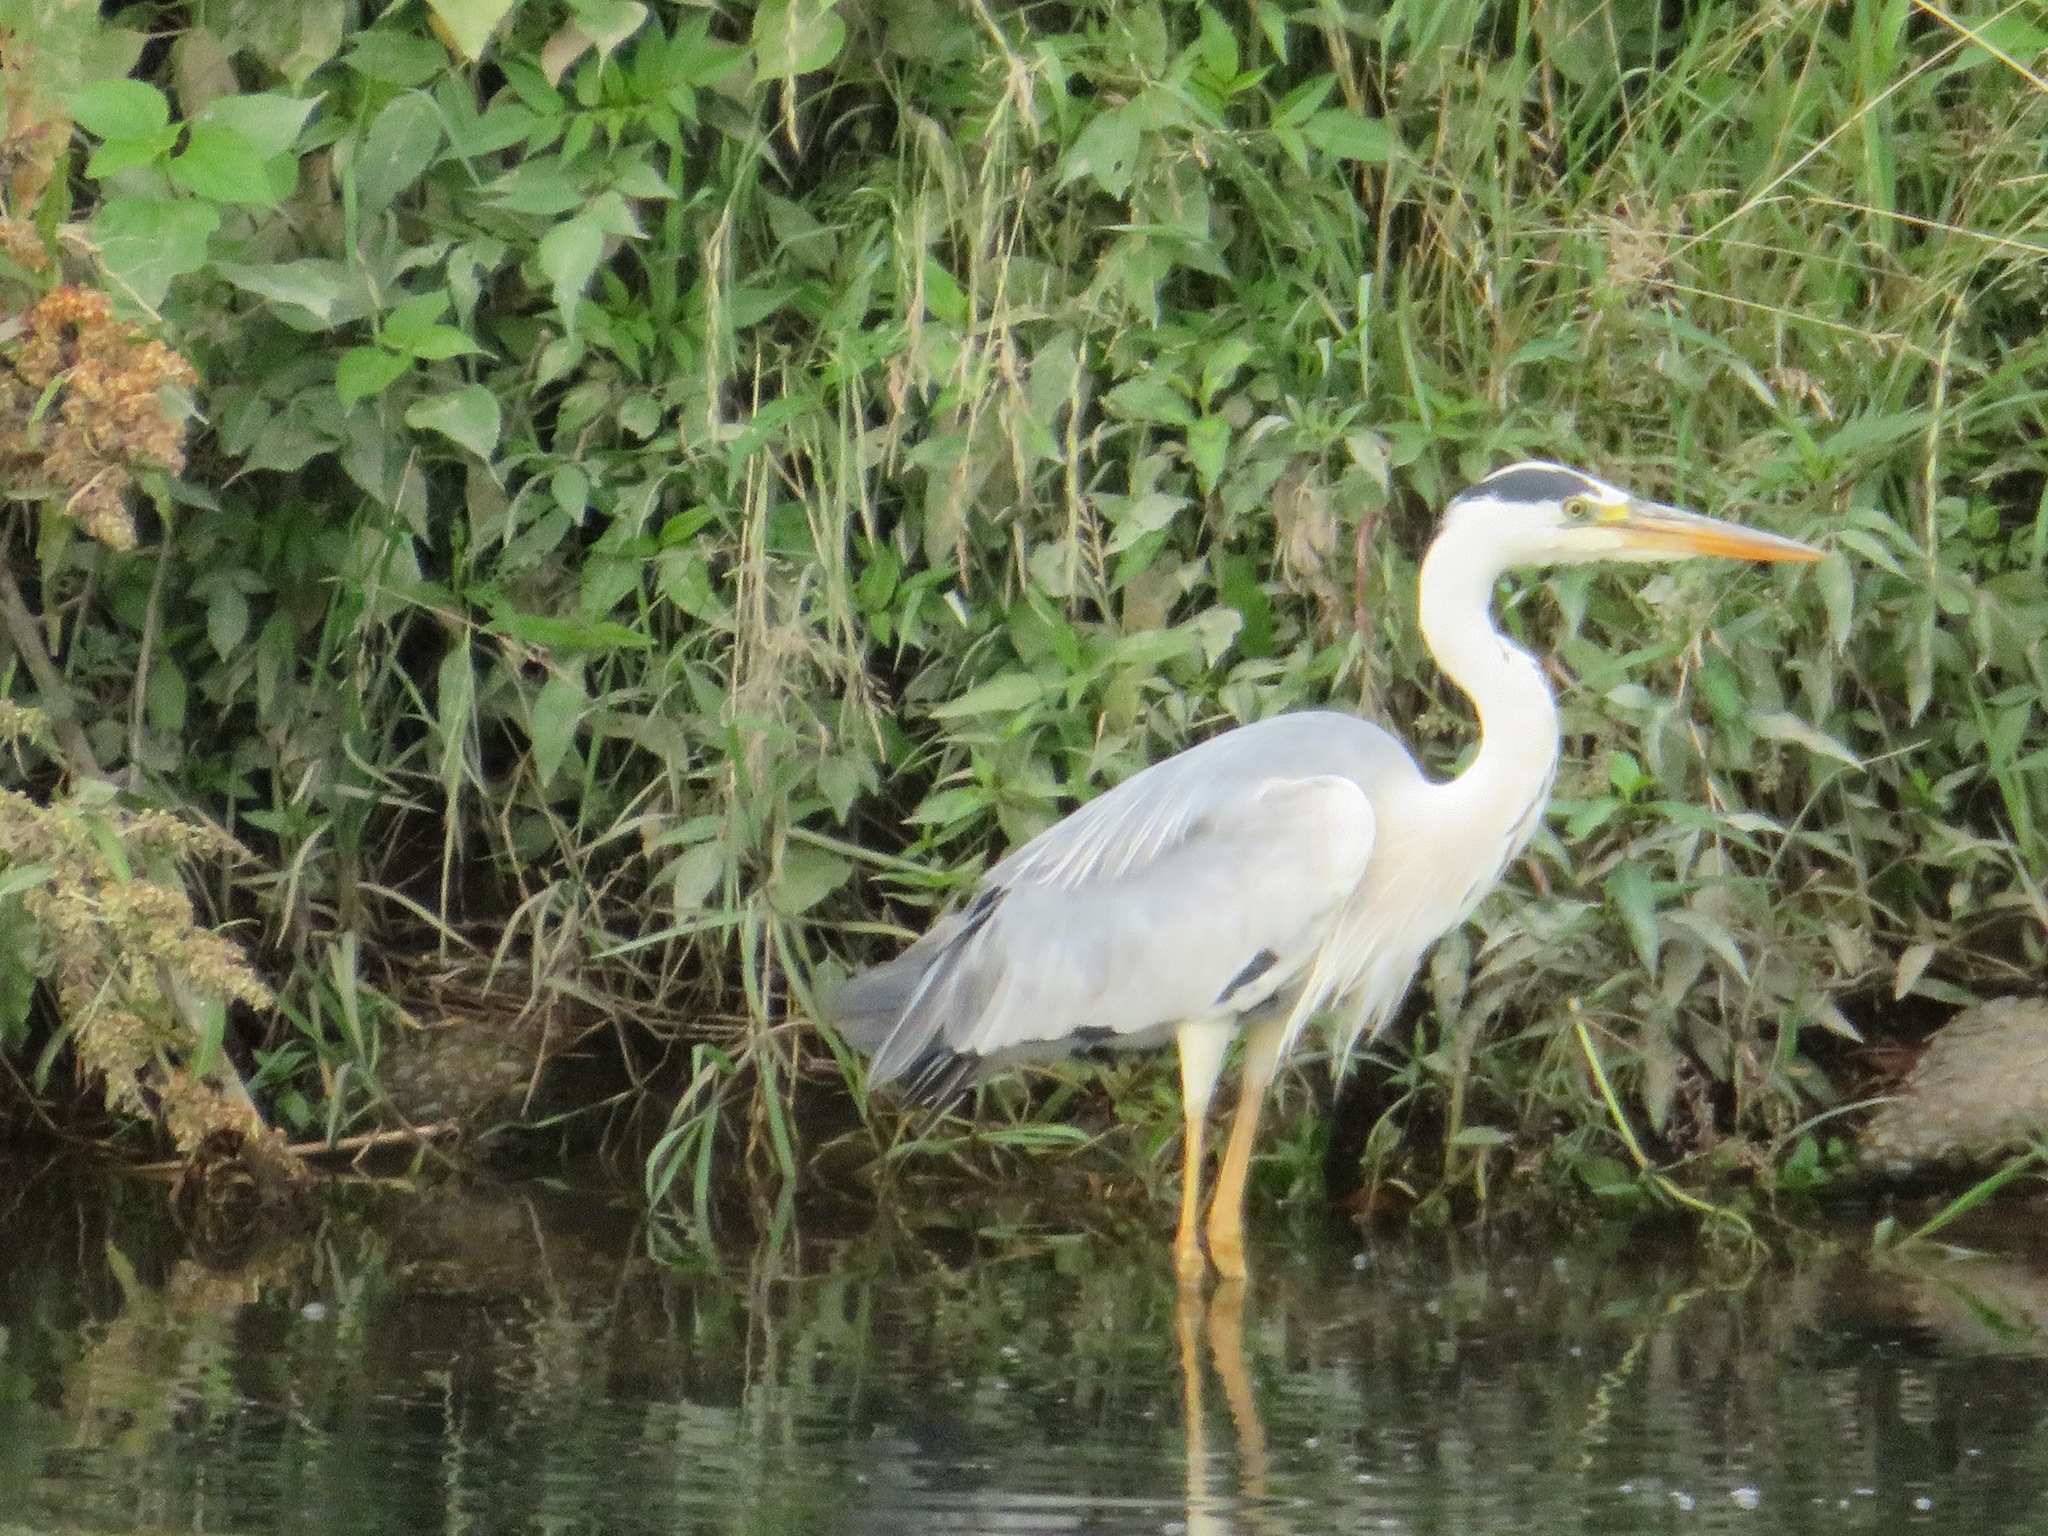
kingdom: Animalia
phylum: Chordata
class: Aves
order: Pelecaniformes
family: Ardeidae
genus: Ardea
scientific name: Ardea cinerea
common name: Grey heron
